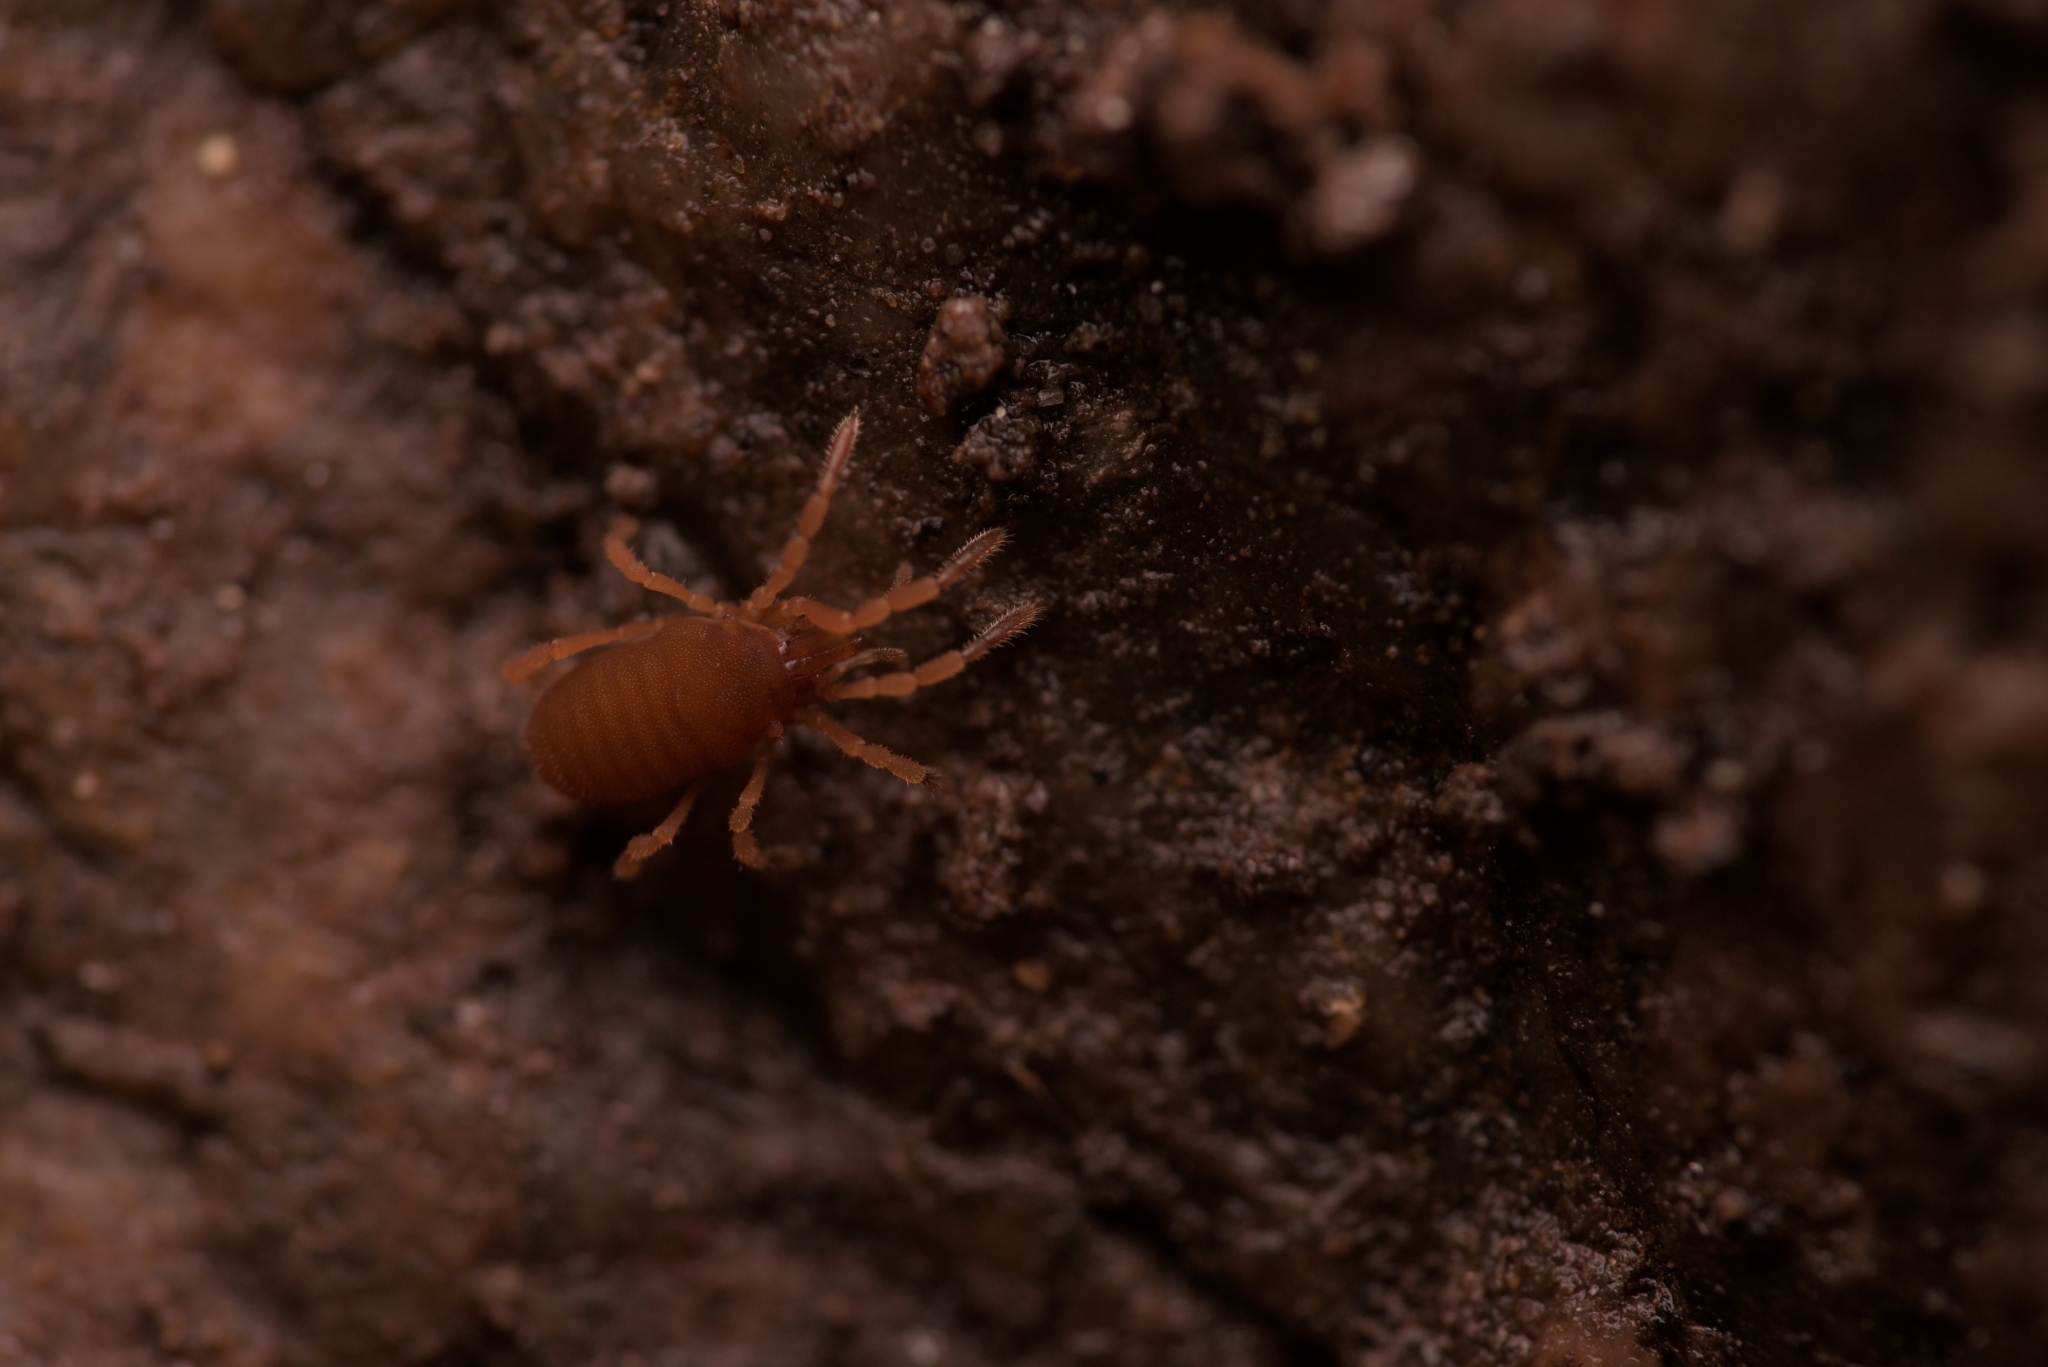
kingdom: Animalia
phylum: Arthropoda
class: Arachnida
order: Opiliones
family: Sironidae
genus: Siro
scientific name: Siro rubens
